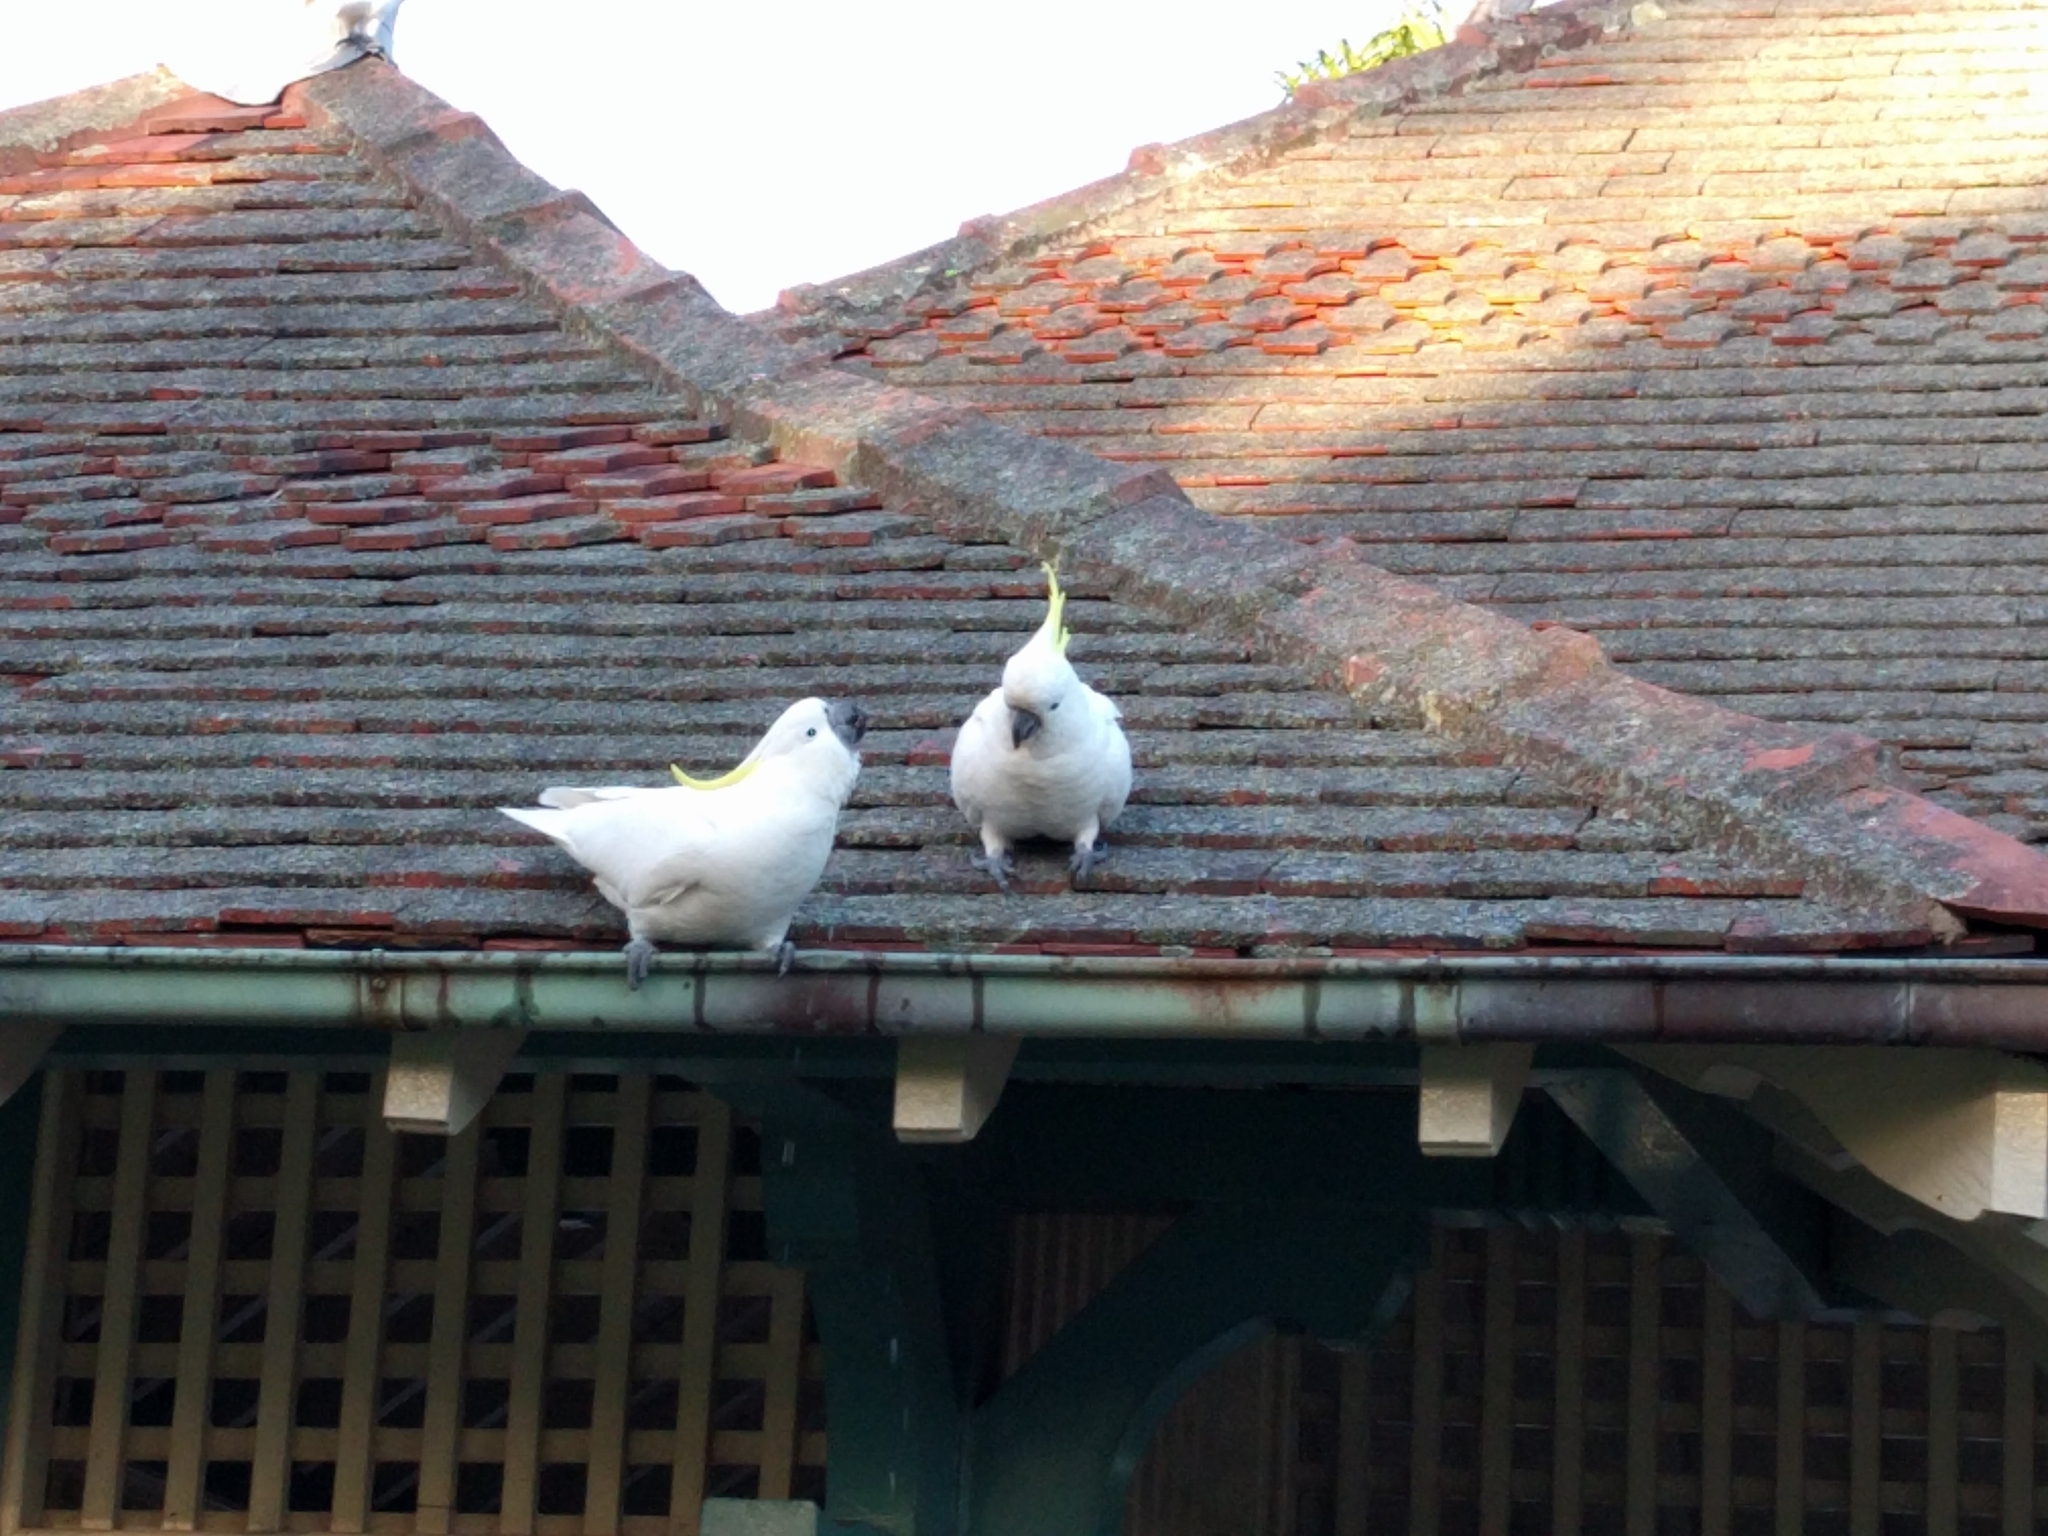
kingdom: Animalia
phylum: Chordata
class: Aves
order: Psittaciformes
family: Psittacidae
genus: Cacatua
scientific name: Cacatua galerita
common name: Sulphur-crested cockatoo
